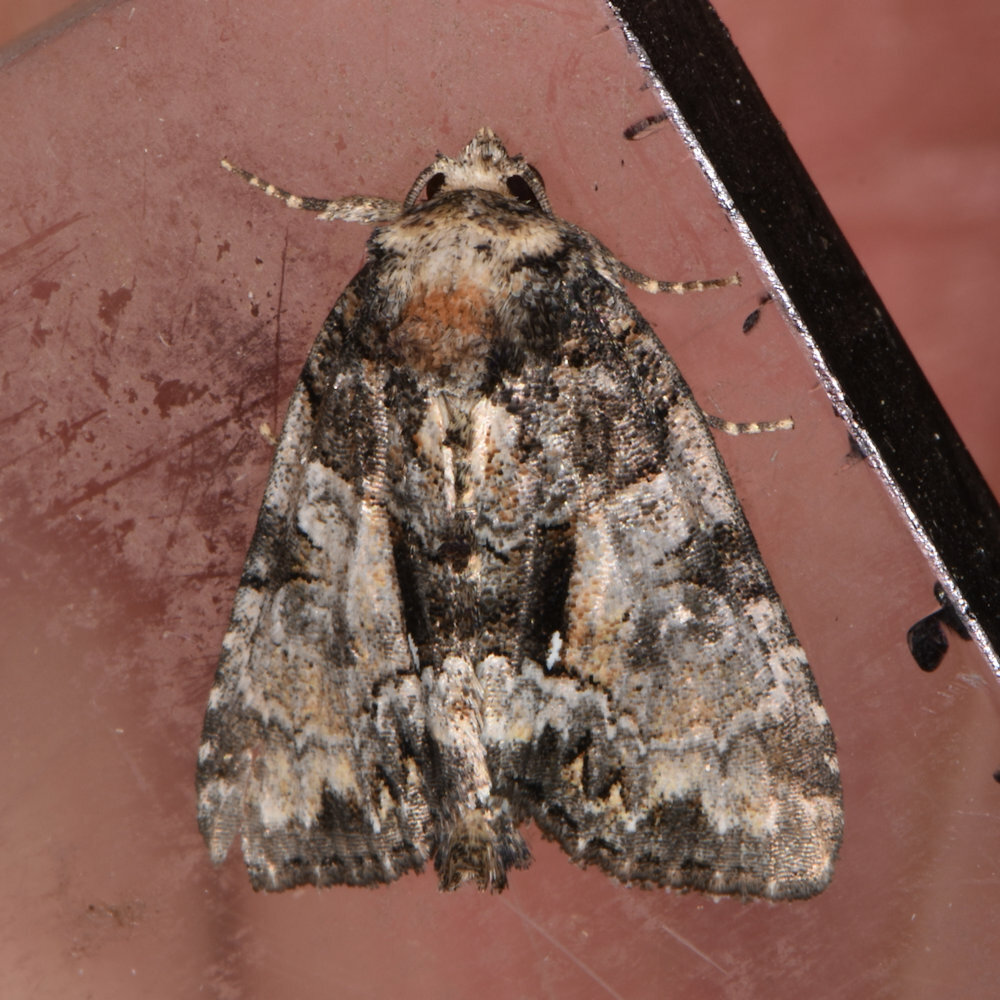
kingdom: Animalia
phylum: Arthropoda
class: Insecta
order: Lepidoptera
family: Noctuidae
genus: Chytonix
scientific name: Chytonix palliatricula
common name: Cloaked marvel
